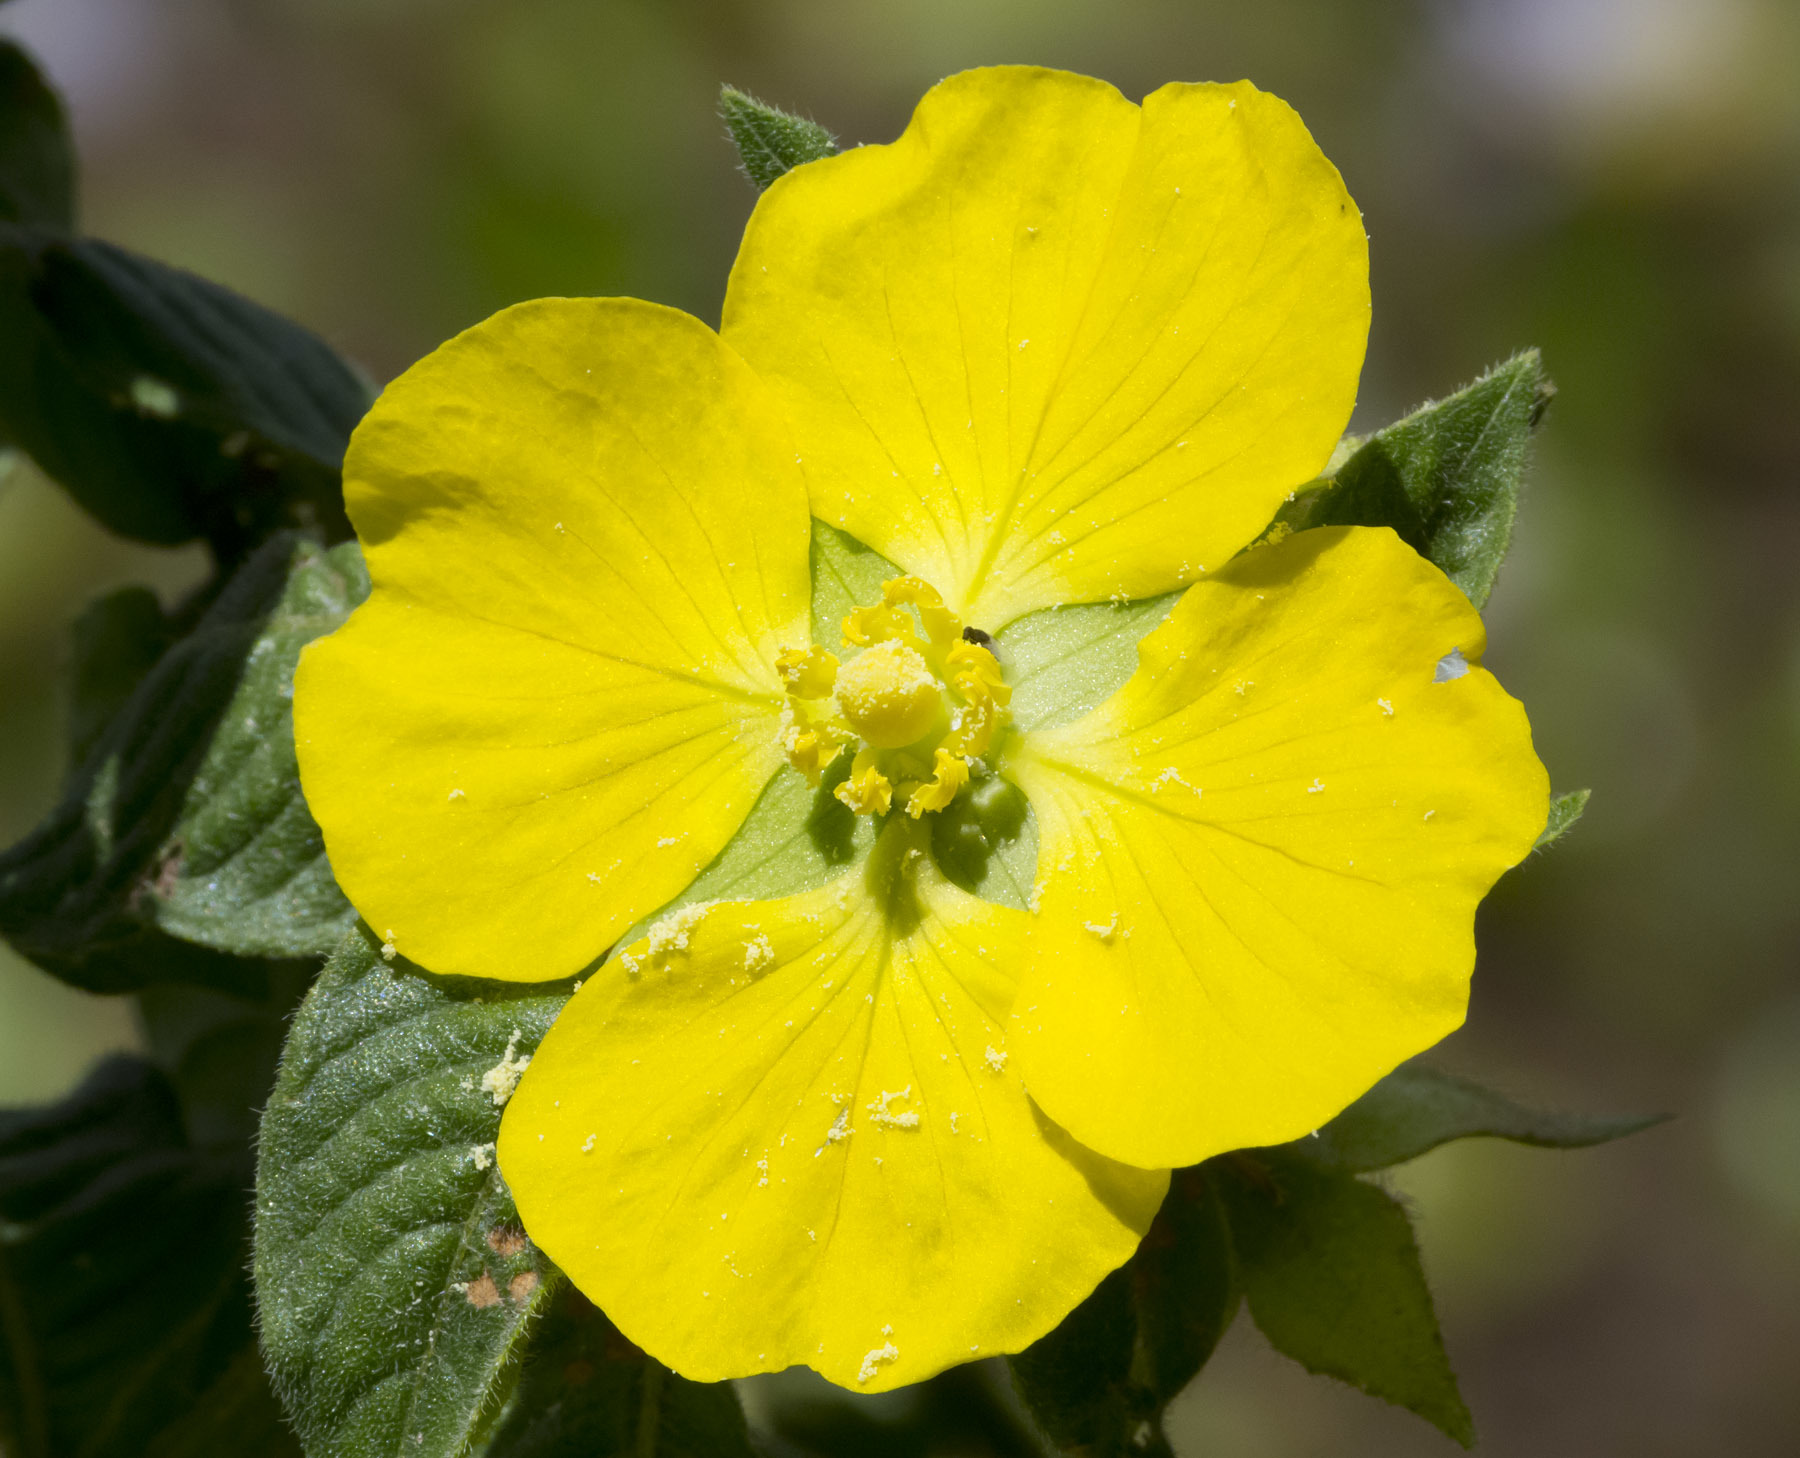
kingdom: Plantae
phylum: Tracheophyta
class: Magnoliopsida
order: Myrtales
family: Onagraceae
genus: Ludwigia
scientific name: Ludwigia peruviana
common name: Peruvian primrose-willow
